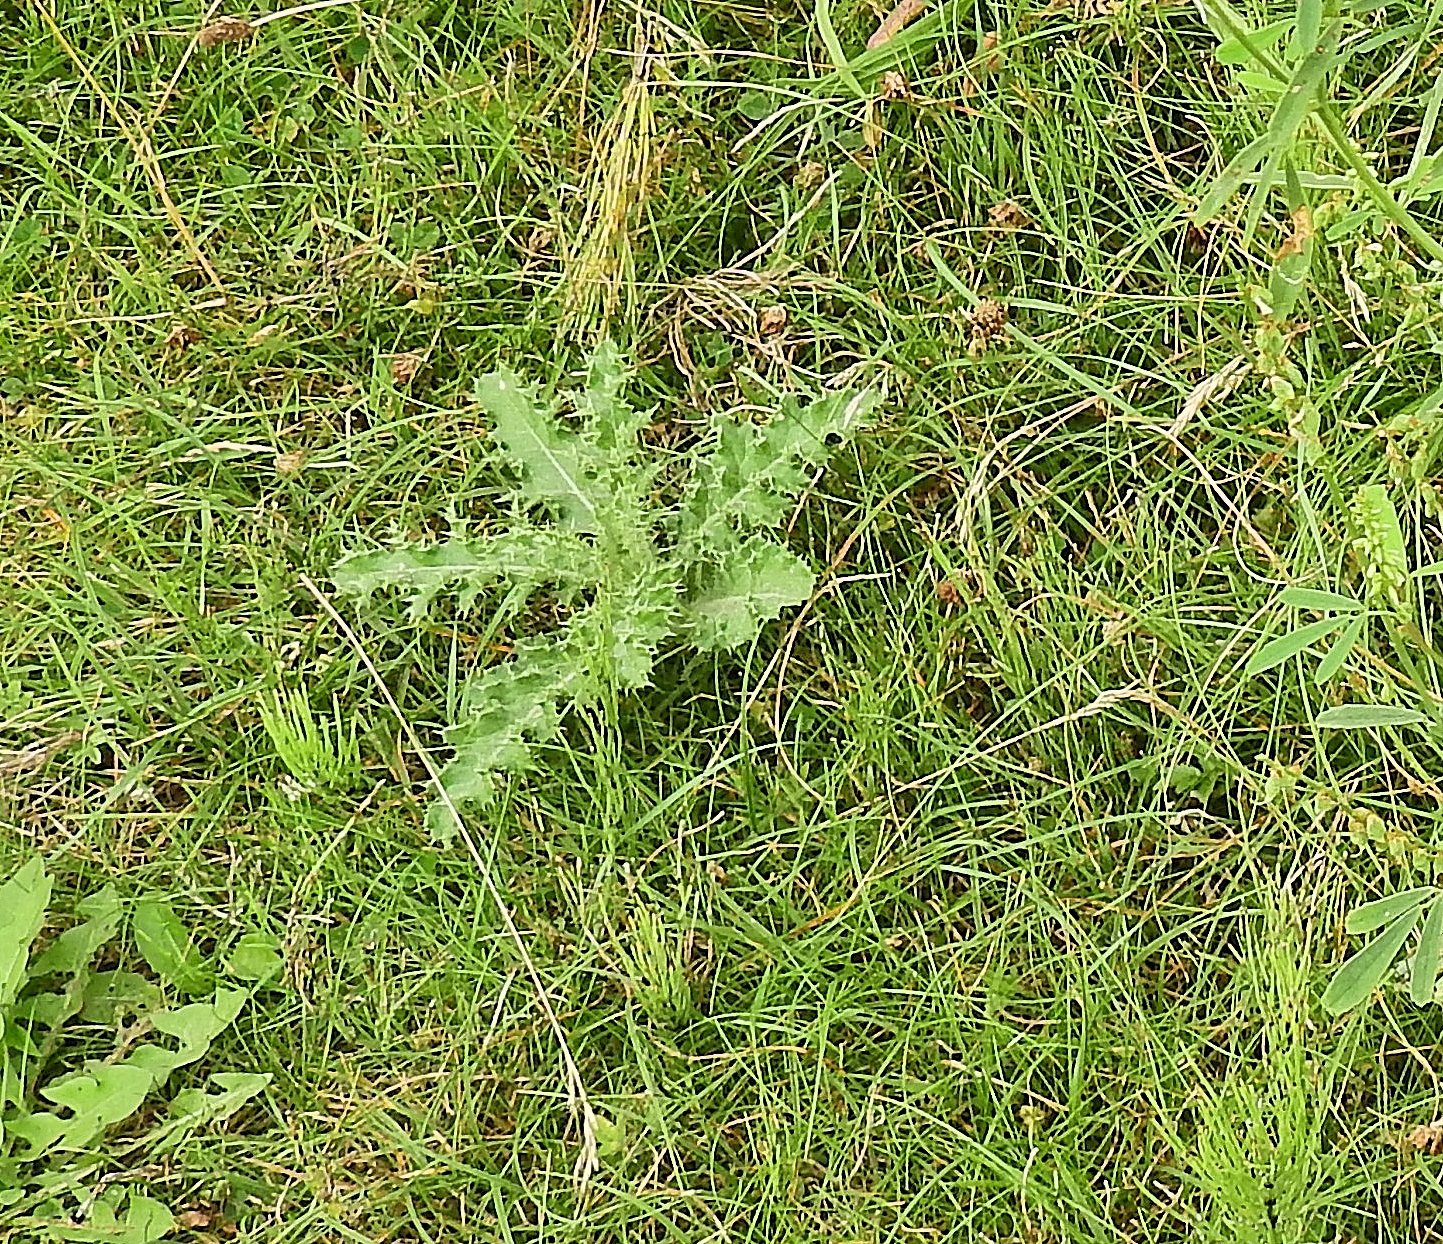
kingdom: Plantae
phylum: Tracheophyta
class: Magnoliopsida
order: Asterales
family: Asteraceae
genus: Cirsium
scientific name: Cirsium arvense
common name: Creeping thistle
